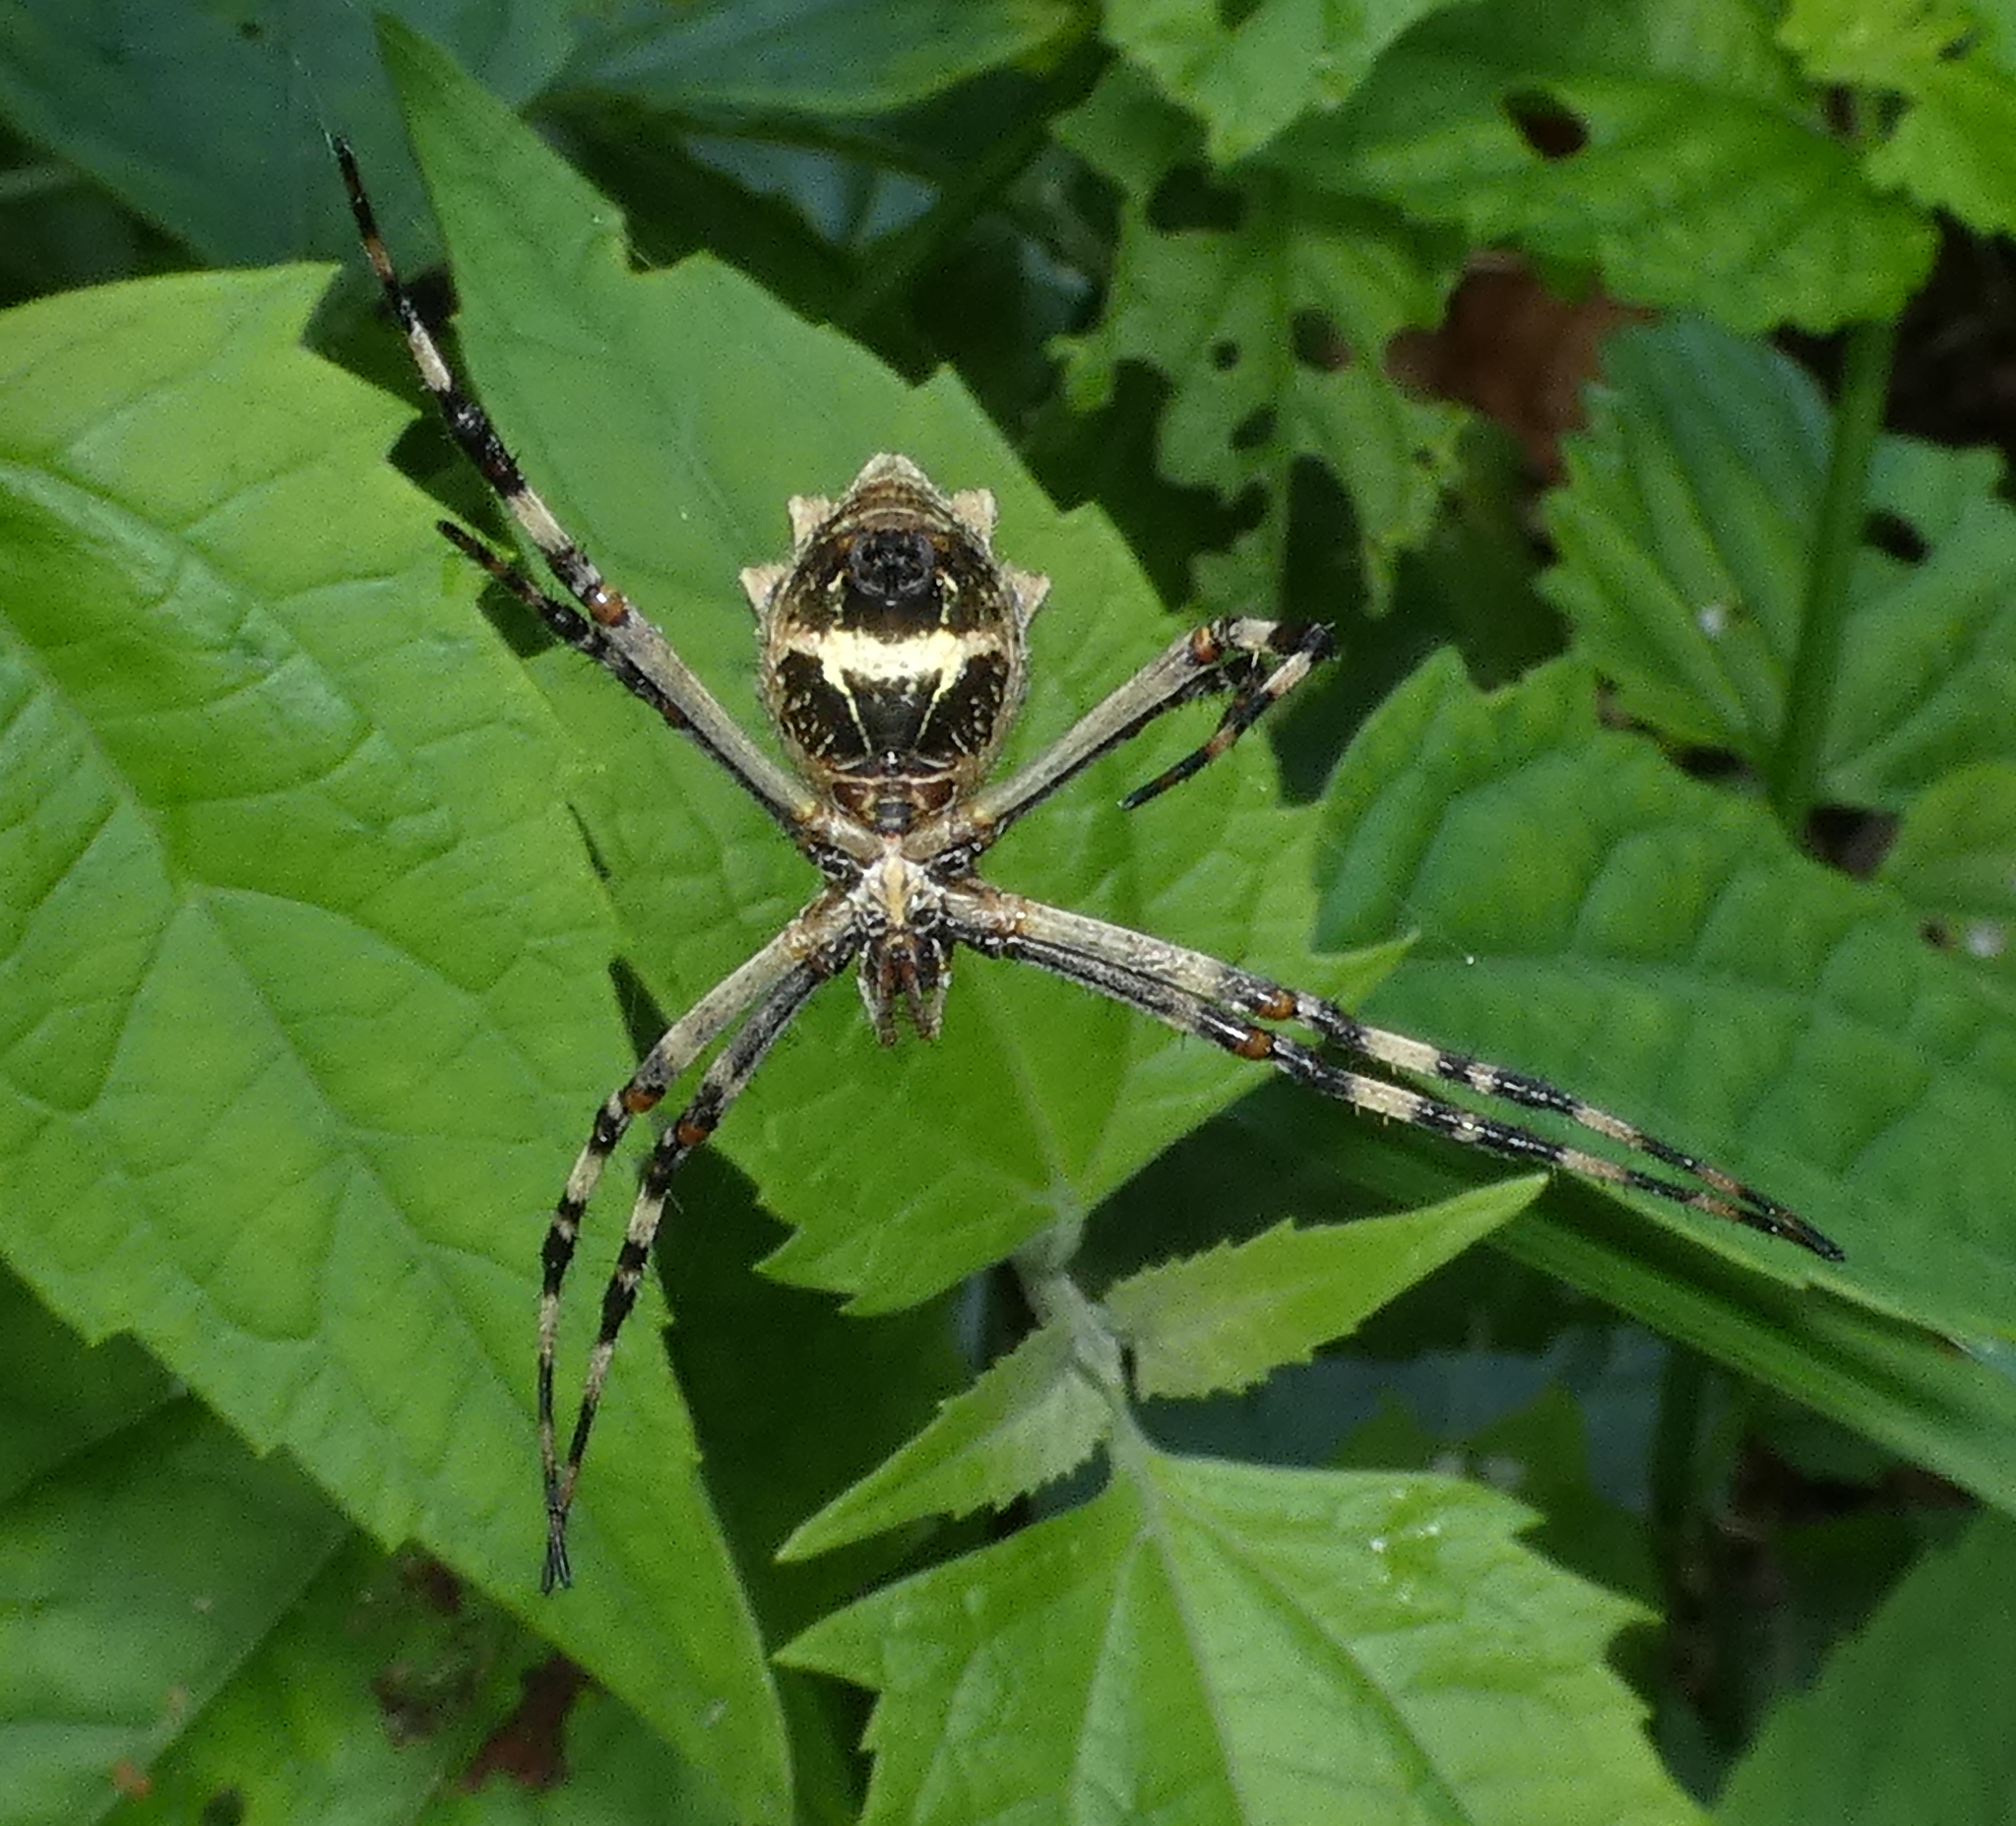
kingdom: Animalia
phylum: Arthropoda
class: Arachnida
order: Araneae
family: Araneidae
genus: Argiope
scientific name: Argiope argentata
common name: Orb weavers
